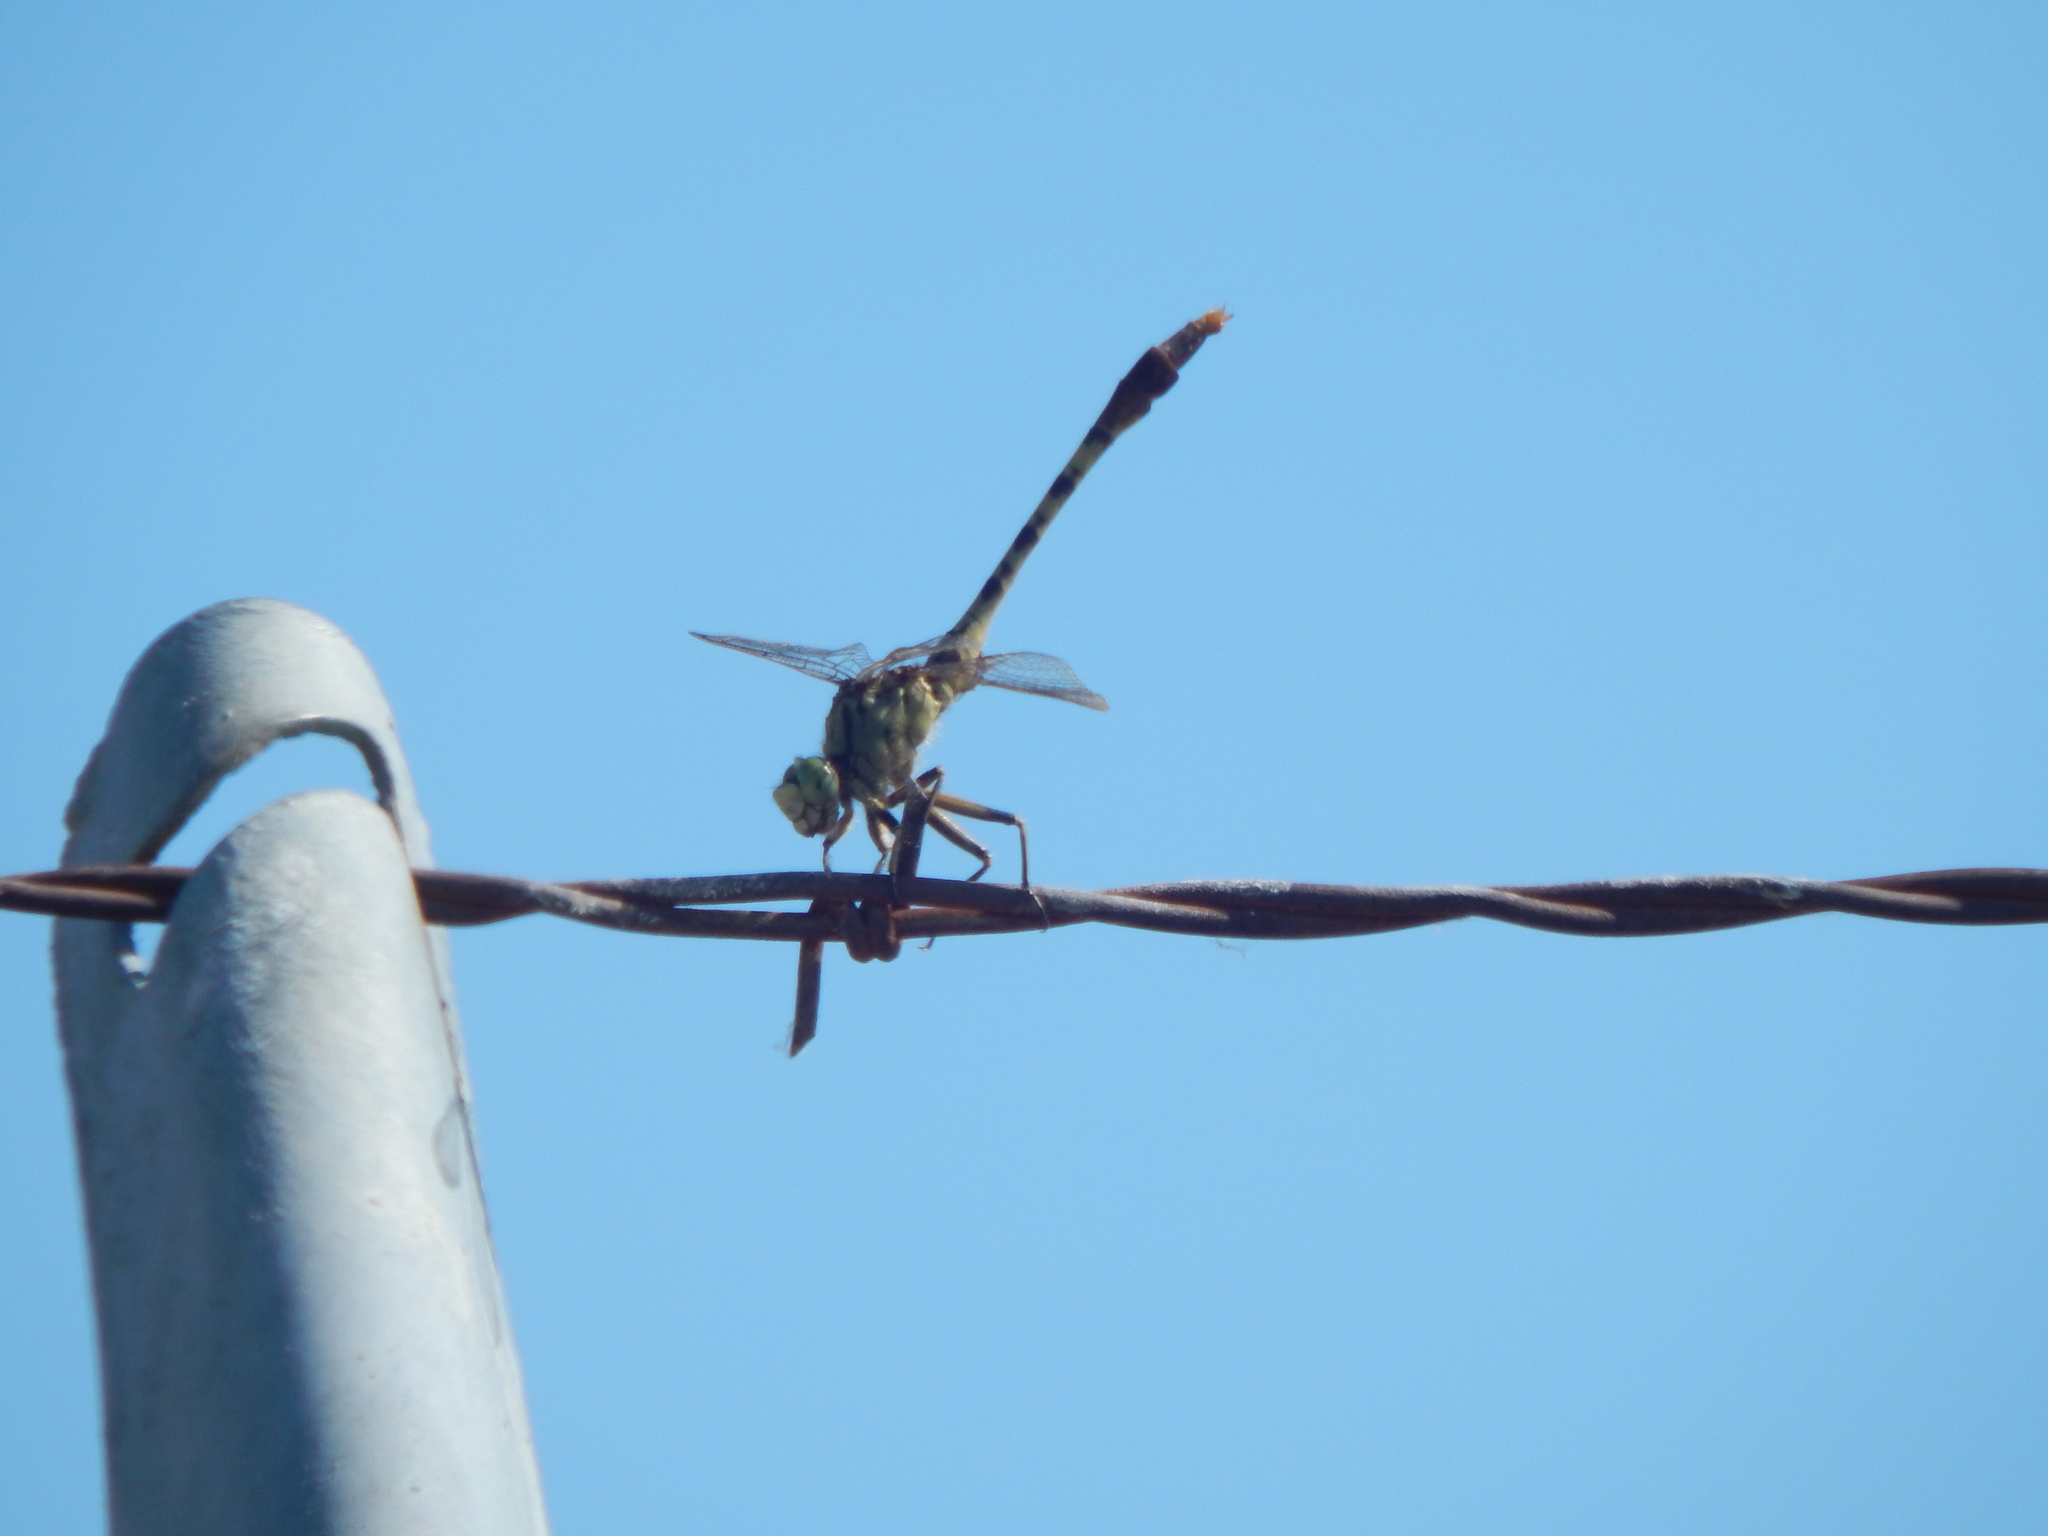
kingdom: Animalia
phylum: Arthropoda
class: Insecta
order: Odonata
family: Gomphidae
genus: Arigomphus
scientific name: Arigomphus submedianus
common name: Jade clubtail
